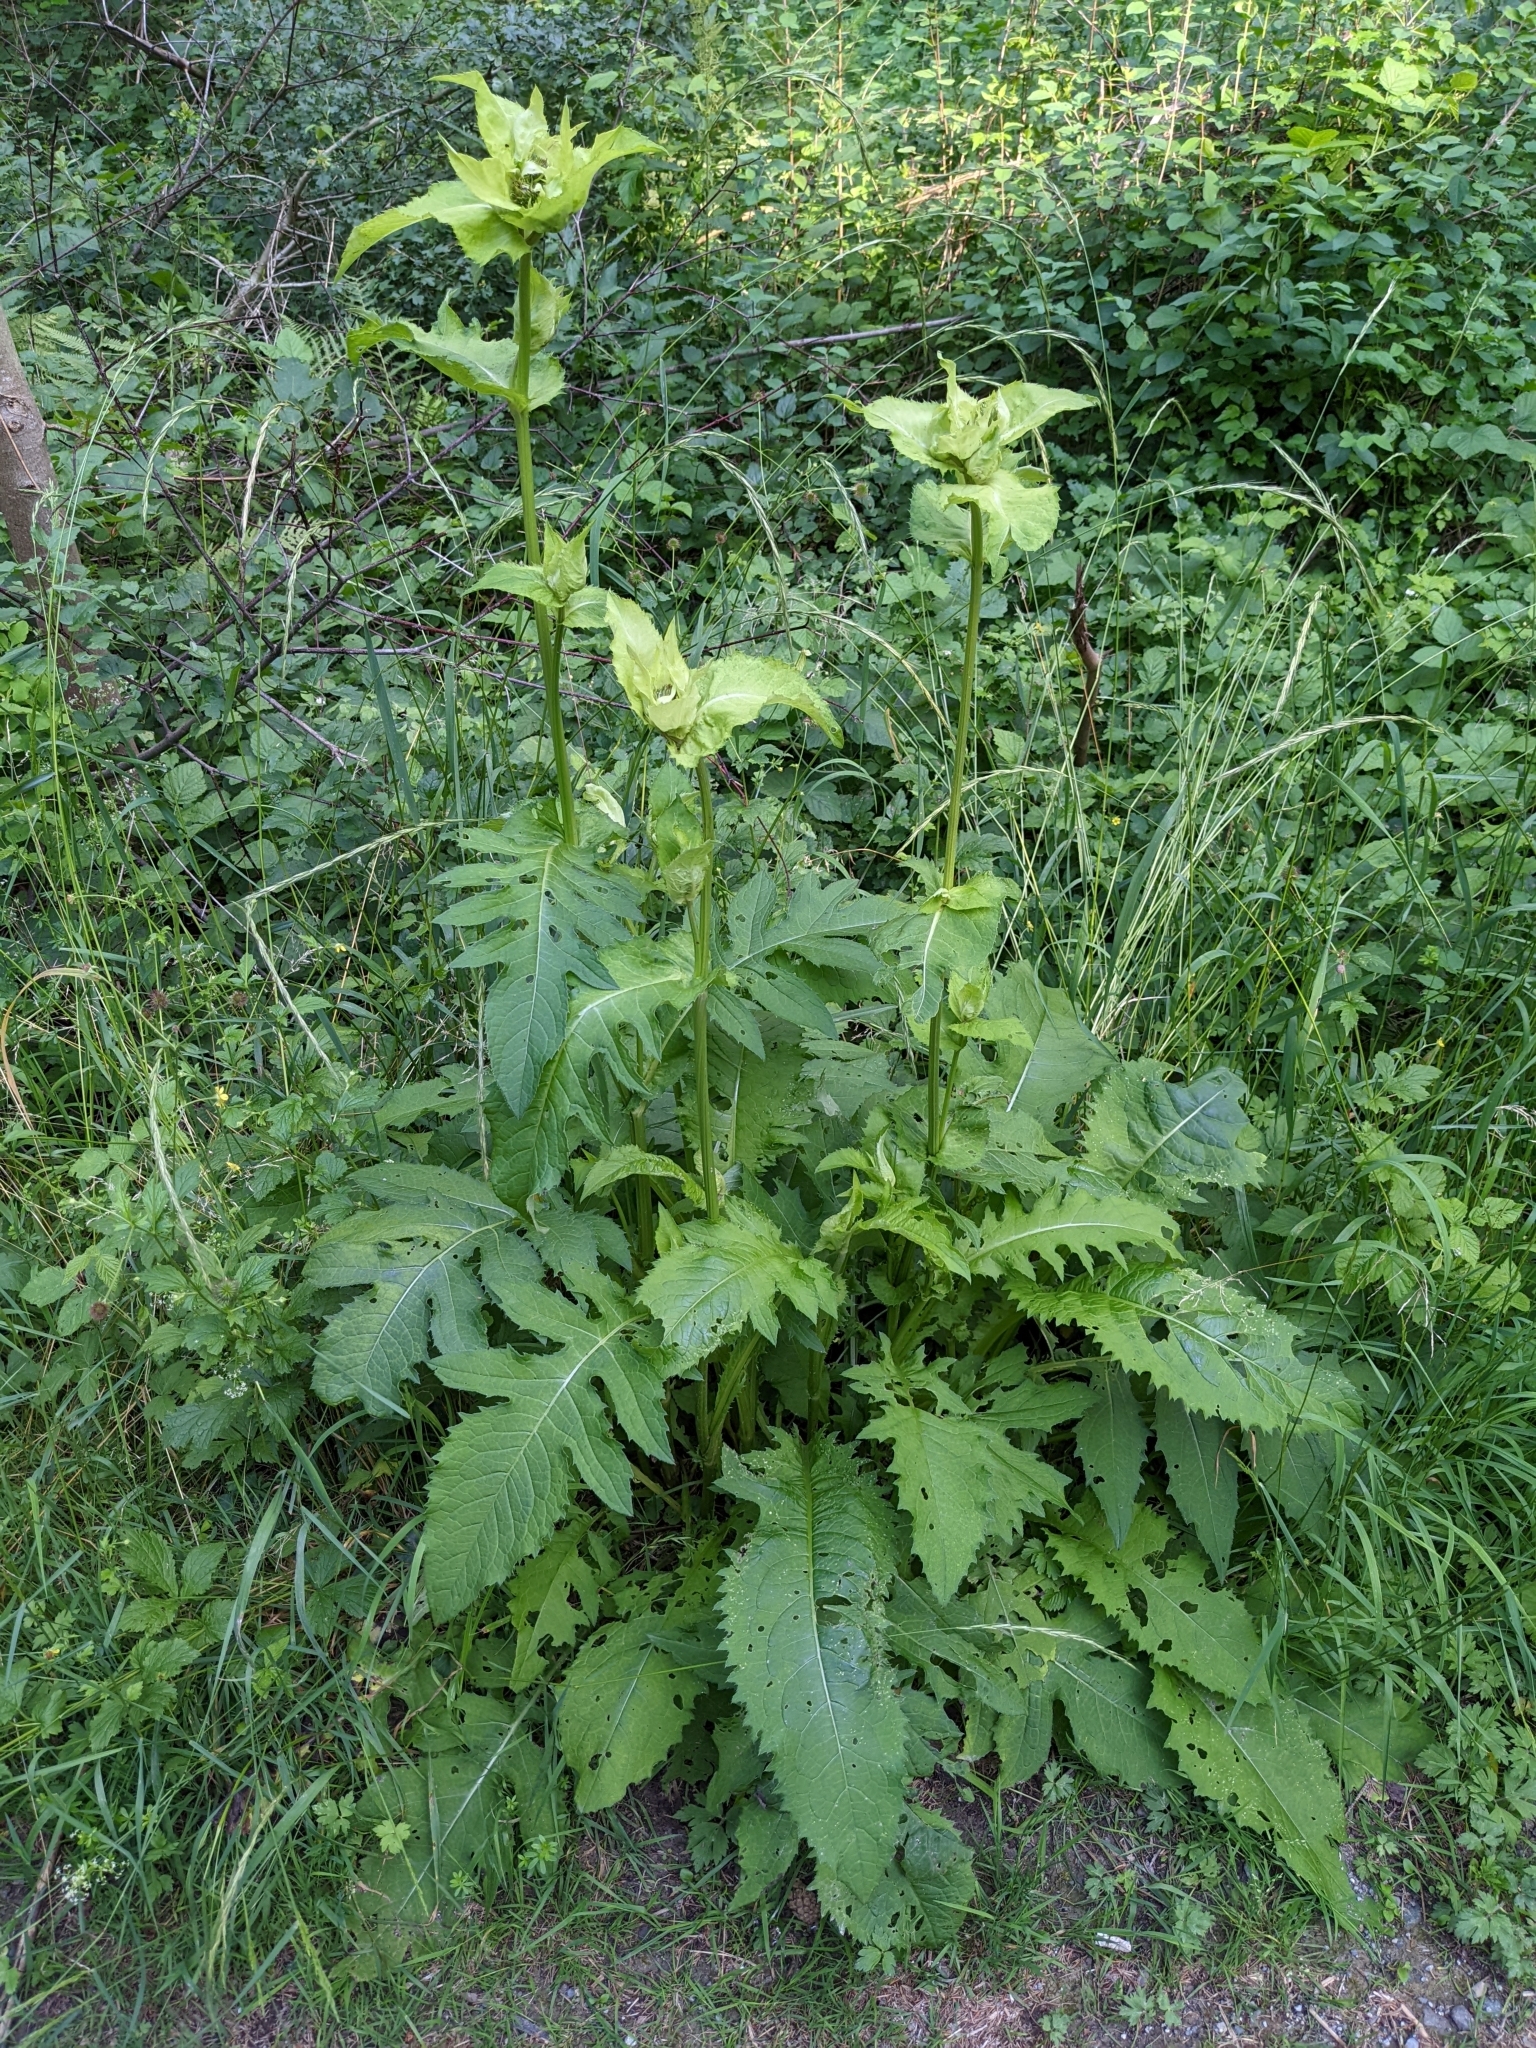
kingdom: Plantae
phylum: Tracheophyta
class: Magnoliopsida
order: Asterales
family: Asteraceae
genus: Cirsium
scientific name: Cirsium oleraceum
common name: Cabbage thistle
